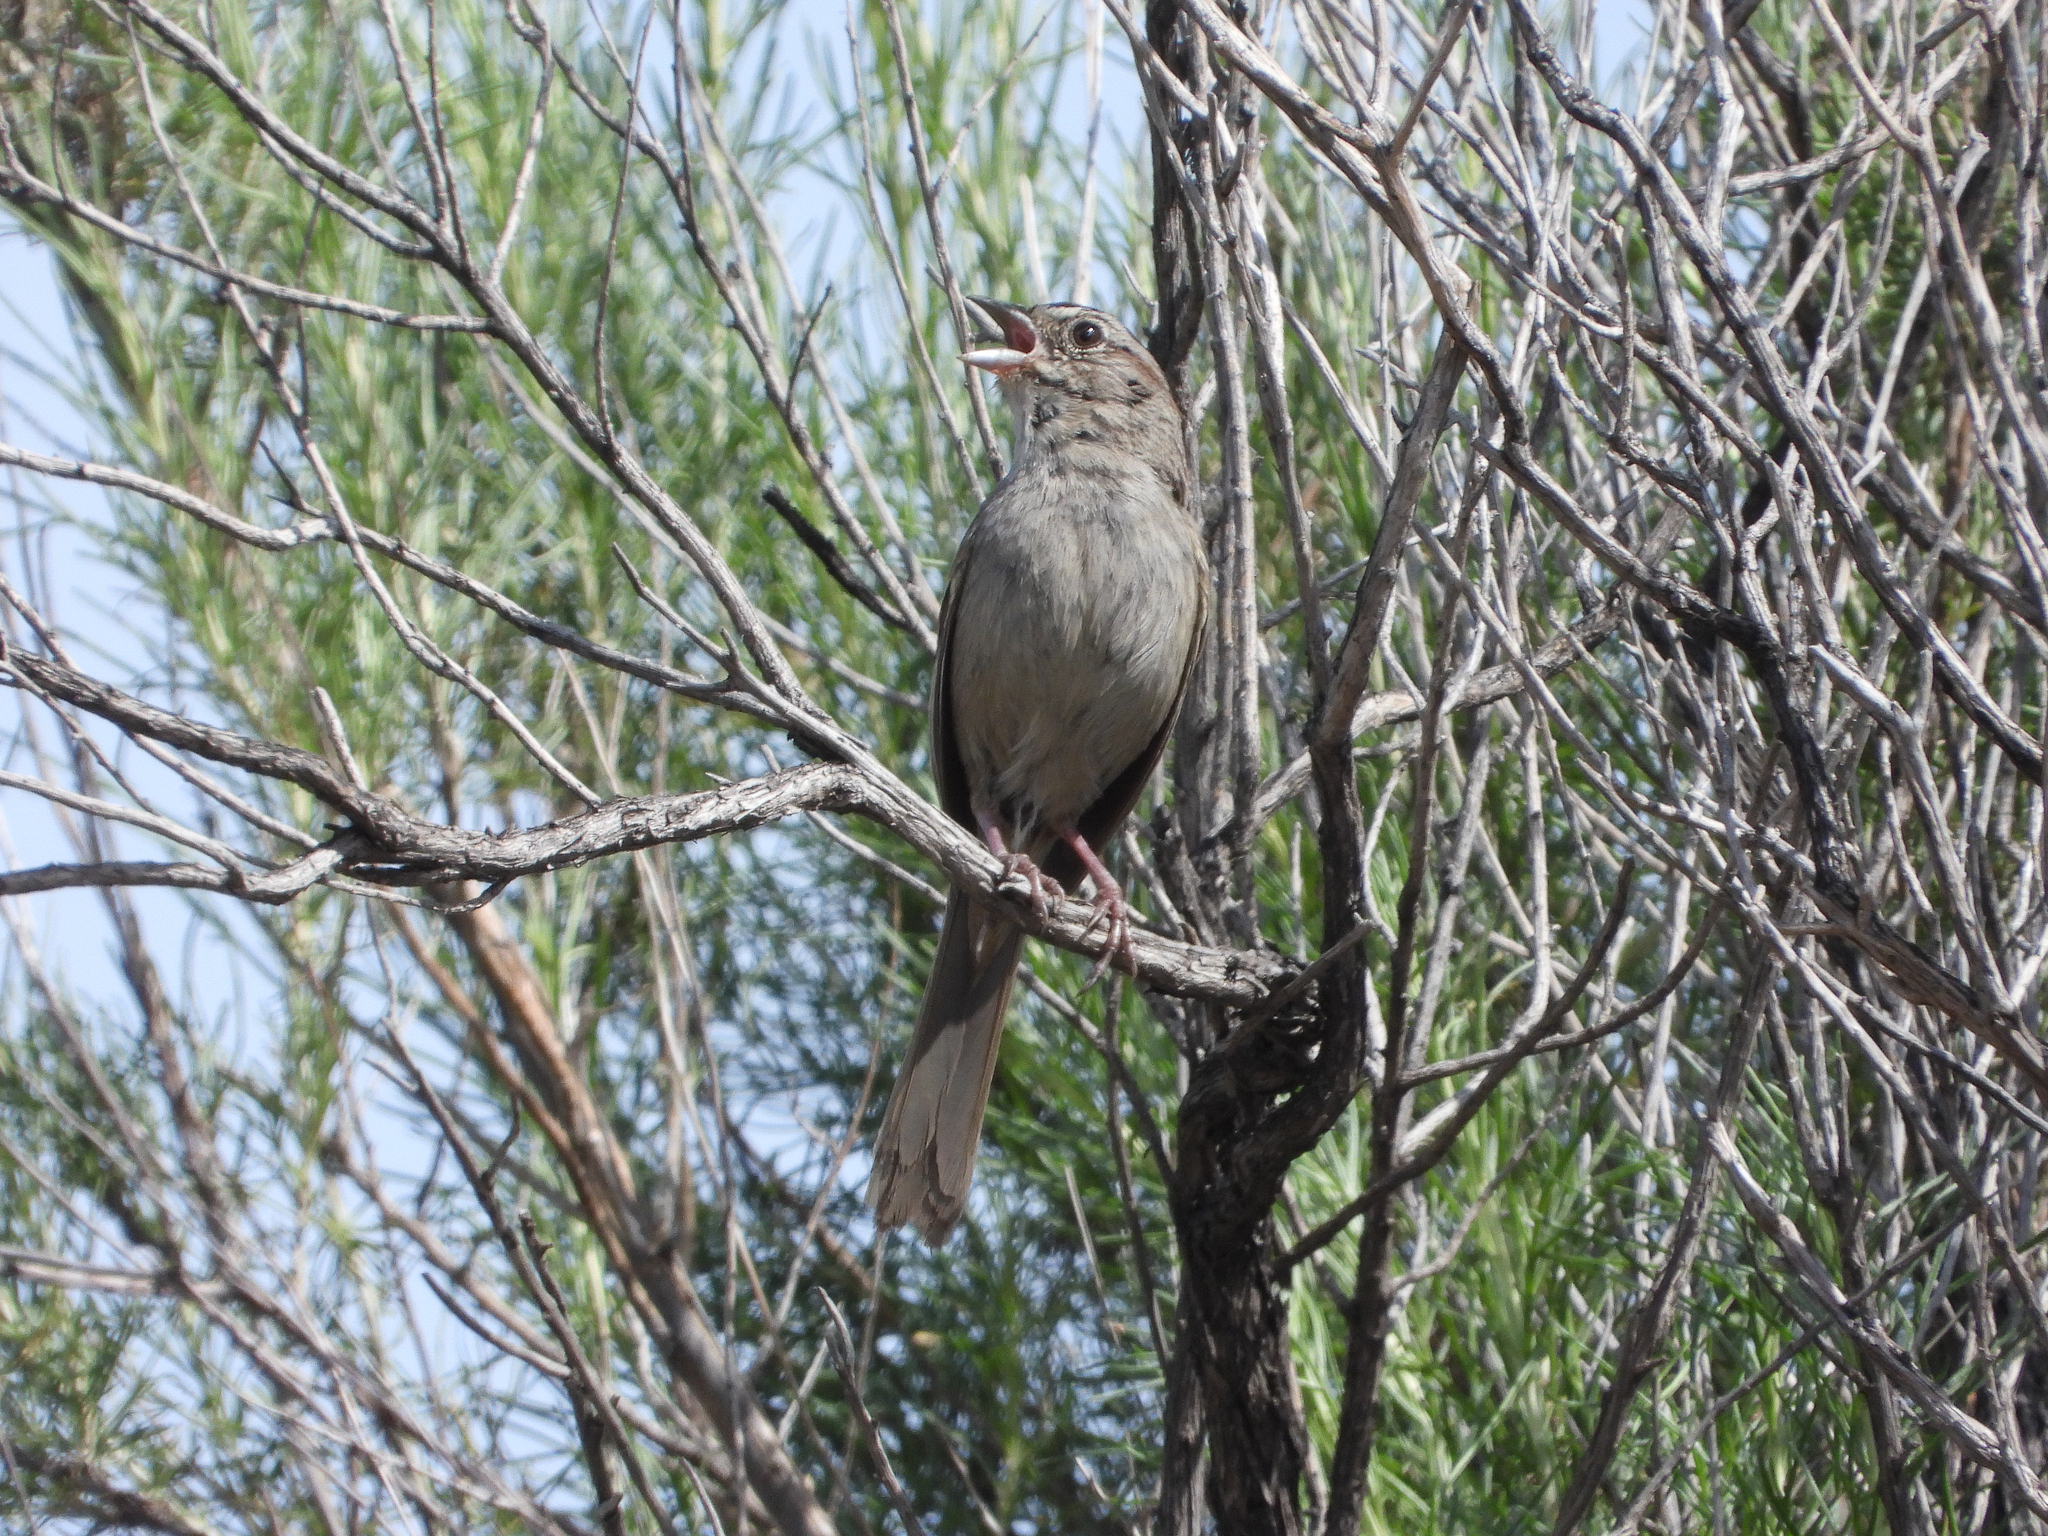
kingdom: Animalia
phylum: Chordata
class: Aves
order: Passeriformes
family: Passerellidae
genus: Aimophila
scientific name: Aimophila ruficeps
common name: Rufous-crowned sparrow
